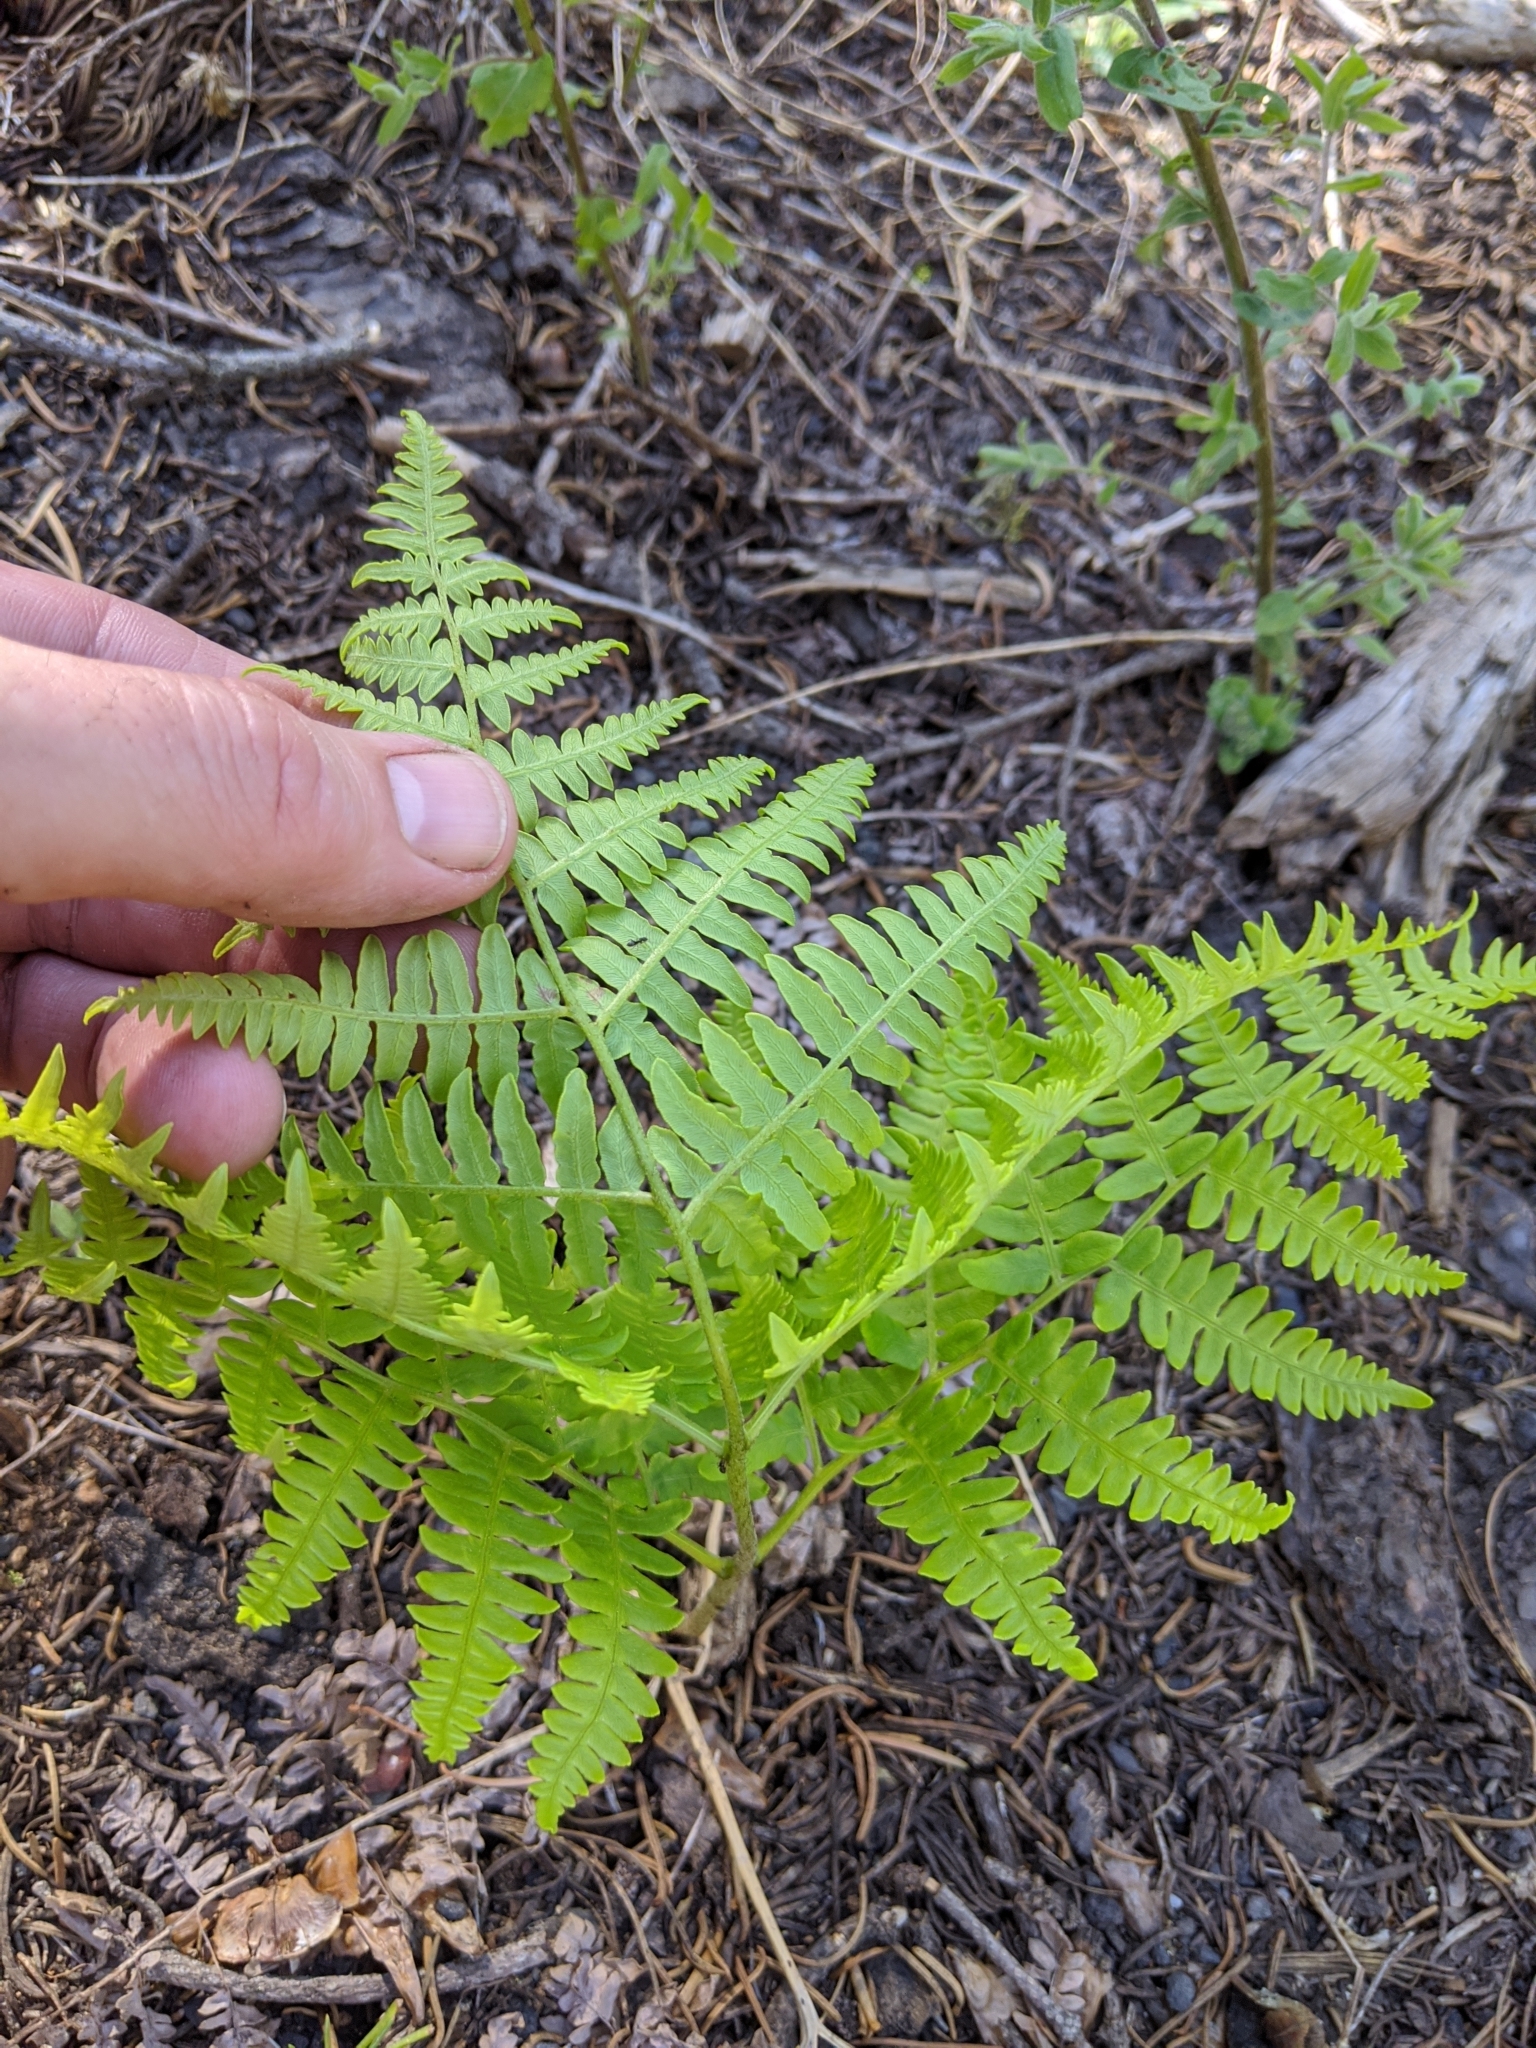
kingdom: Plantae
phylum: Tracheophyta
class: Polypodiopsida
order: Polypodiales
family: Dennstaedtiaceae
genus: Pteridium
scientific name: Pteridium aquilinum
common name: Bracken
